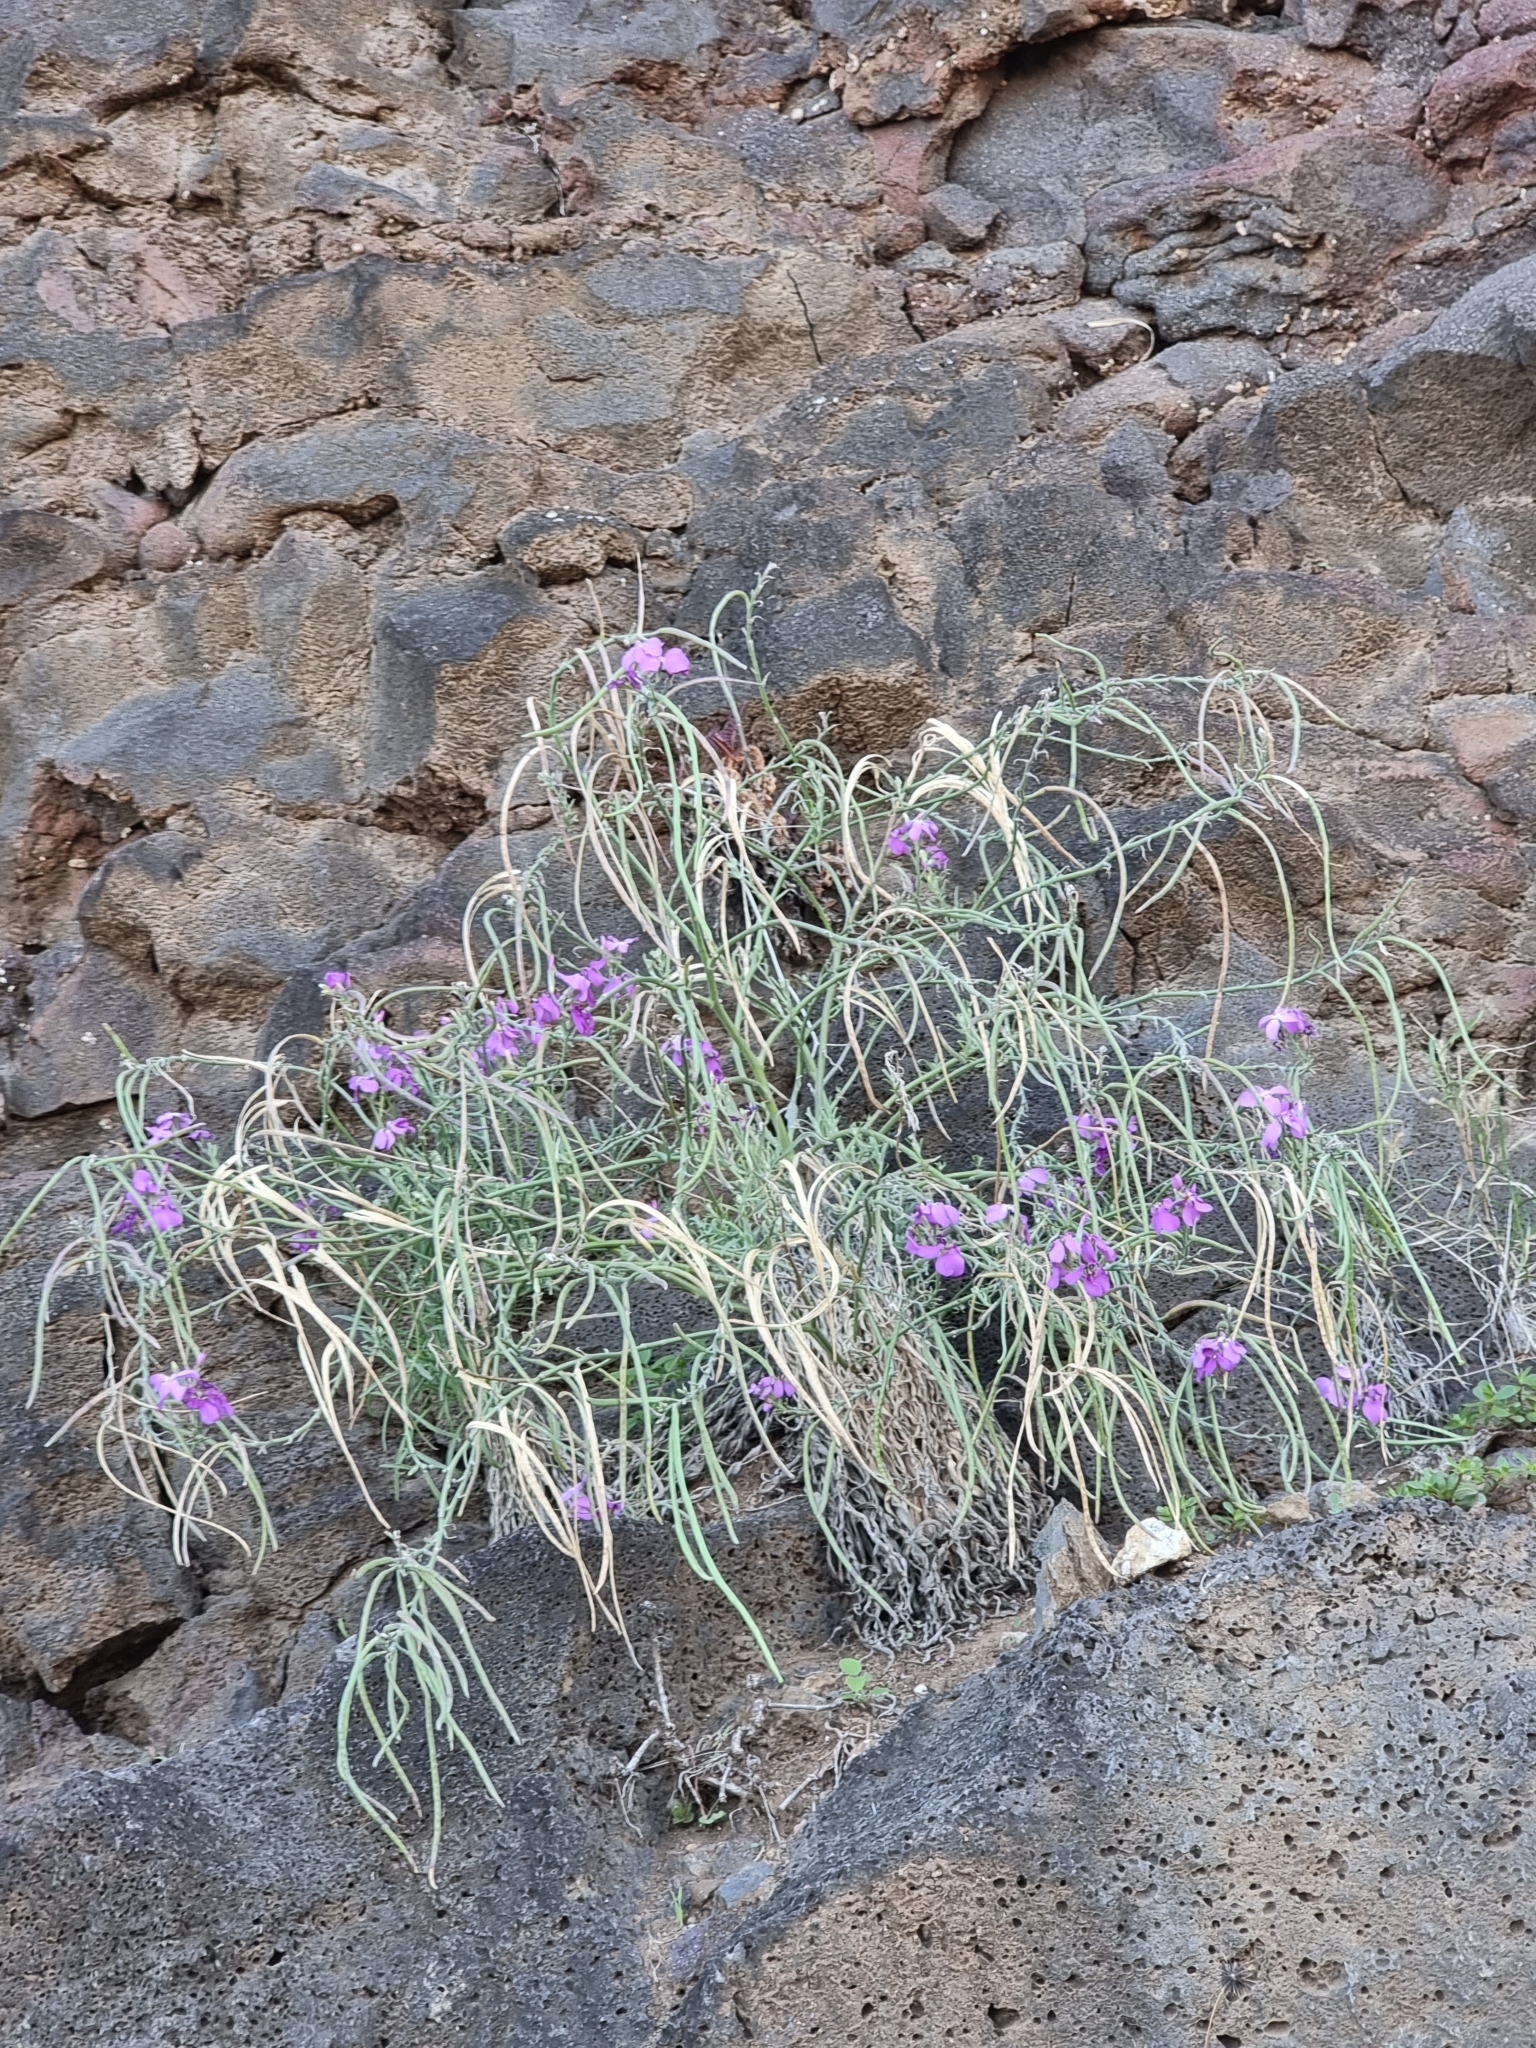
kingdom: Plantae
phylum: Tracheophyta
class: Magnoliopsida
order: Brassicales
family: Brassicaceae
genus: Matthiola
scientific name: Matthiola maderensis
